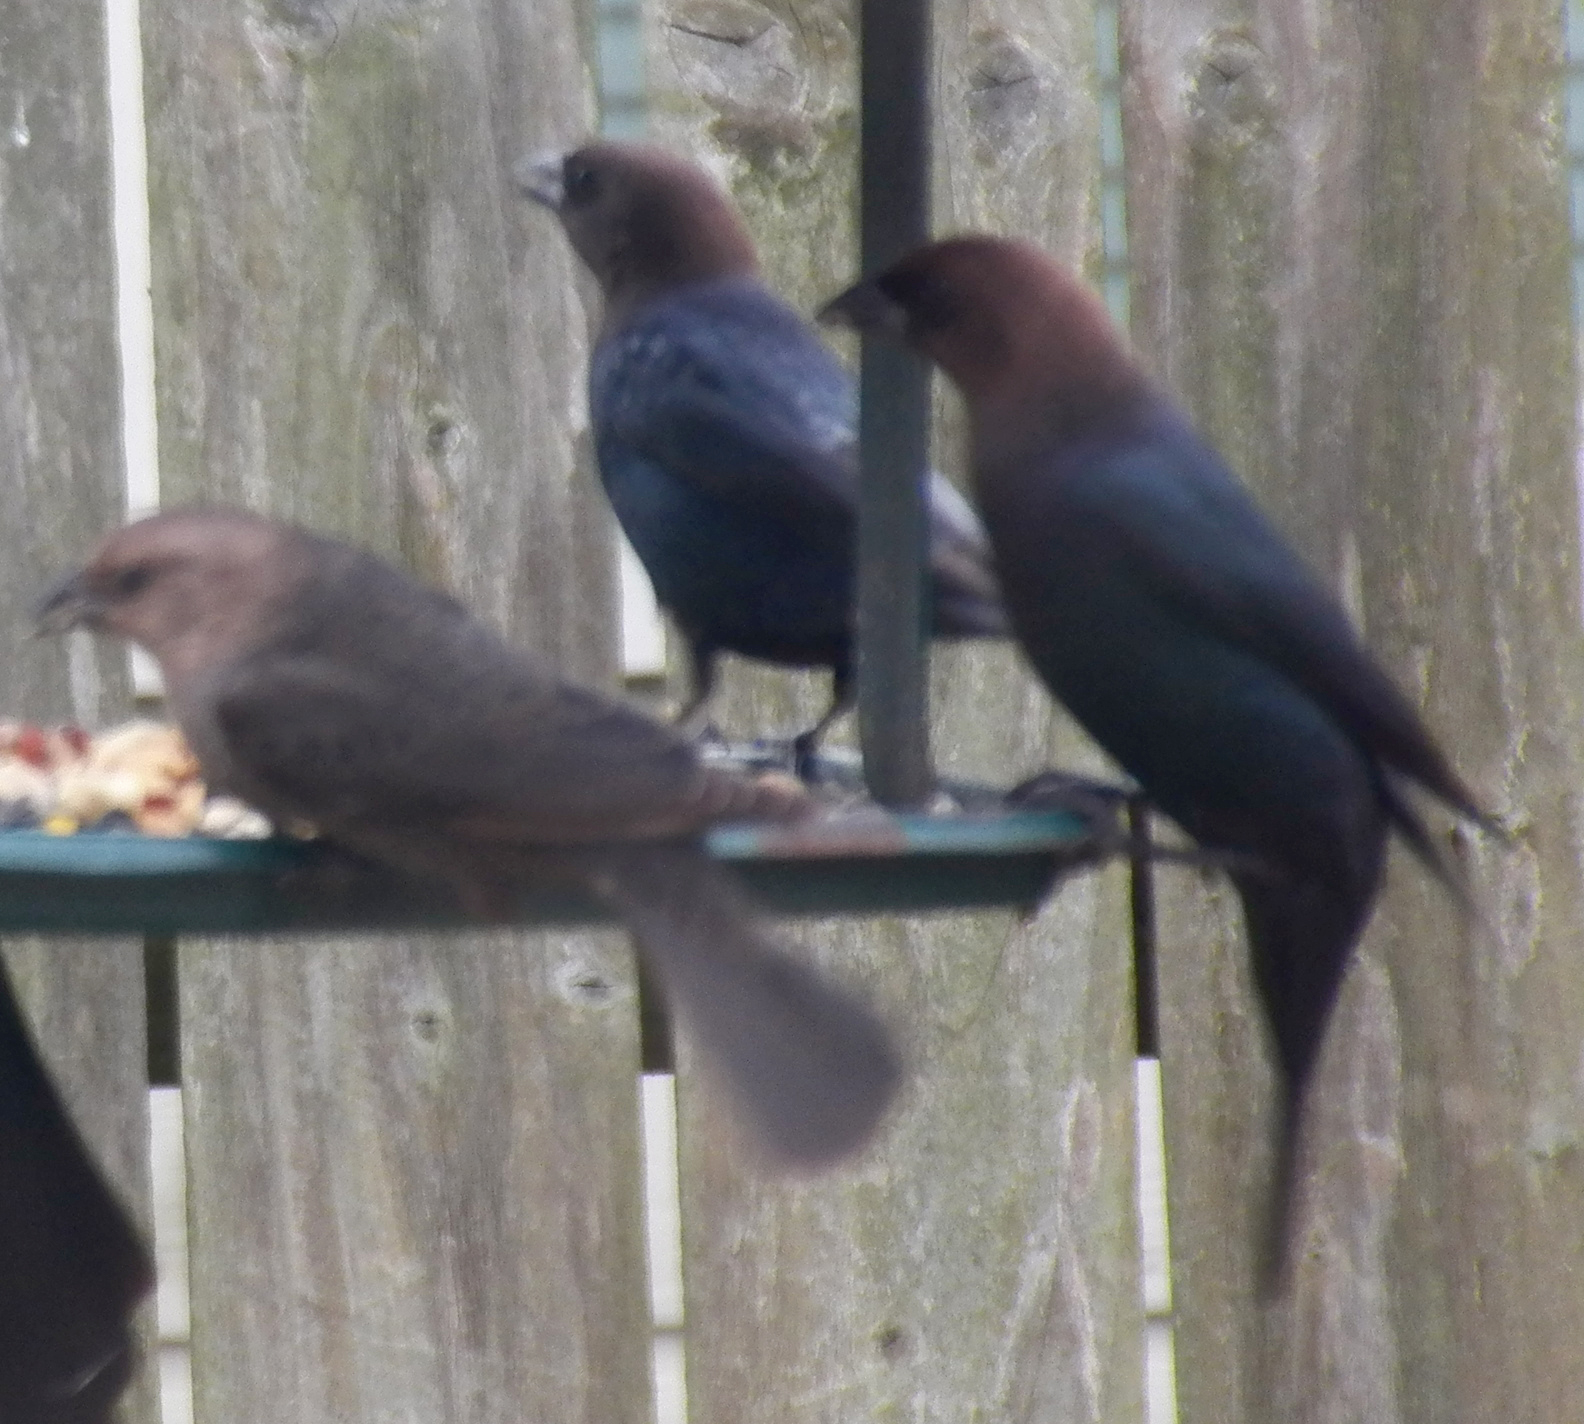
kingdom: Animalia
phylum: Chordata
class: Aves
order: Passeriformes
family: Icteridae
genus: Molothrus
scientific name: Molothrus ater
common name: Brown-headed cowbird
